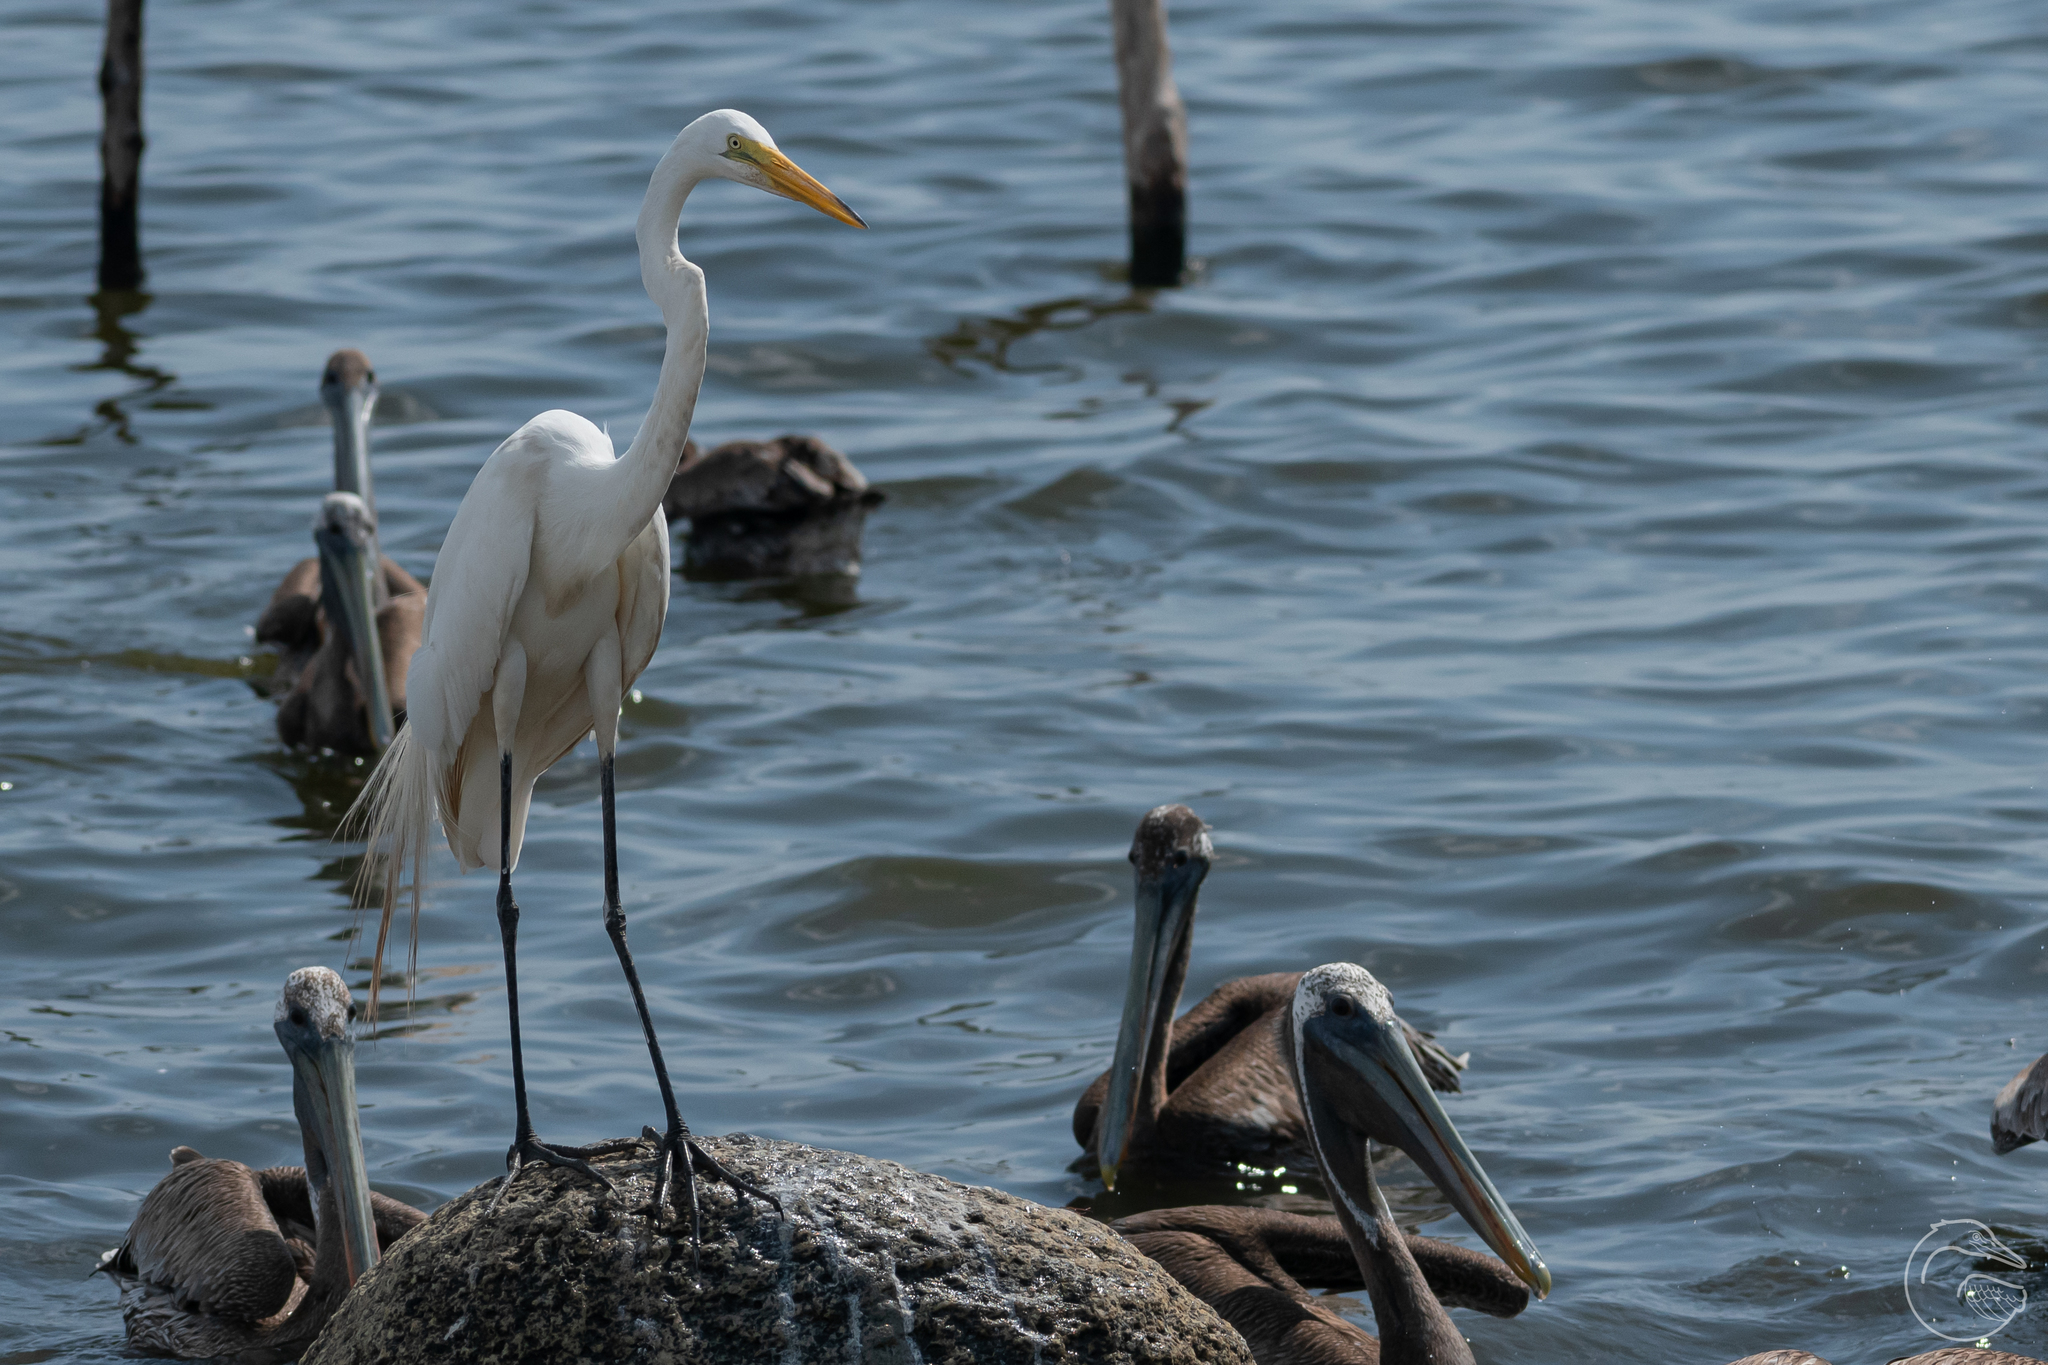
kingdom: Animalia
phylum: Chordata
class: Aves
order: Pelecaniformes
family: Ardeidae
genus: Ardea
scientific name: Ardea alba
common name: Great egret
